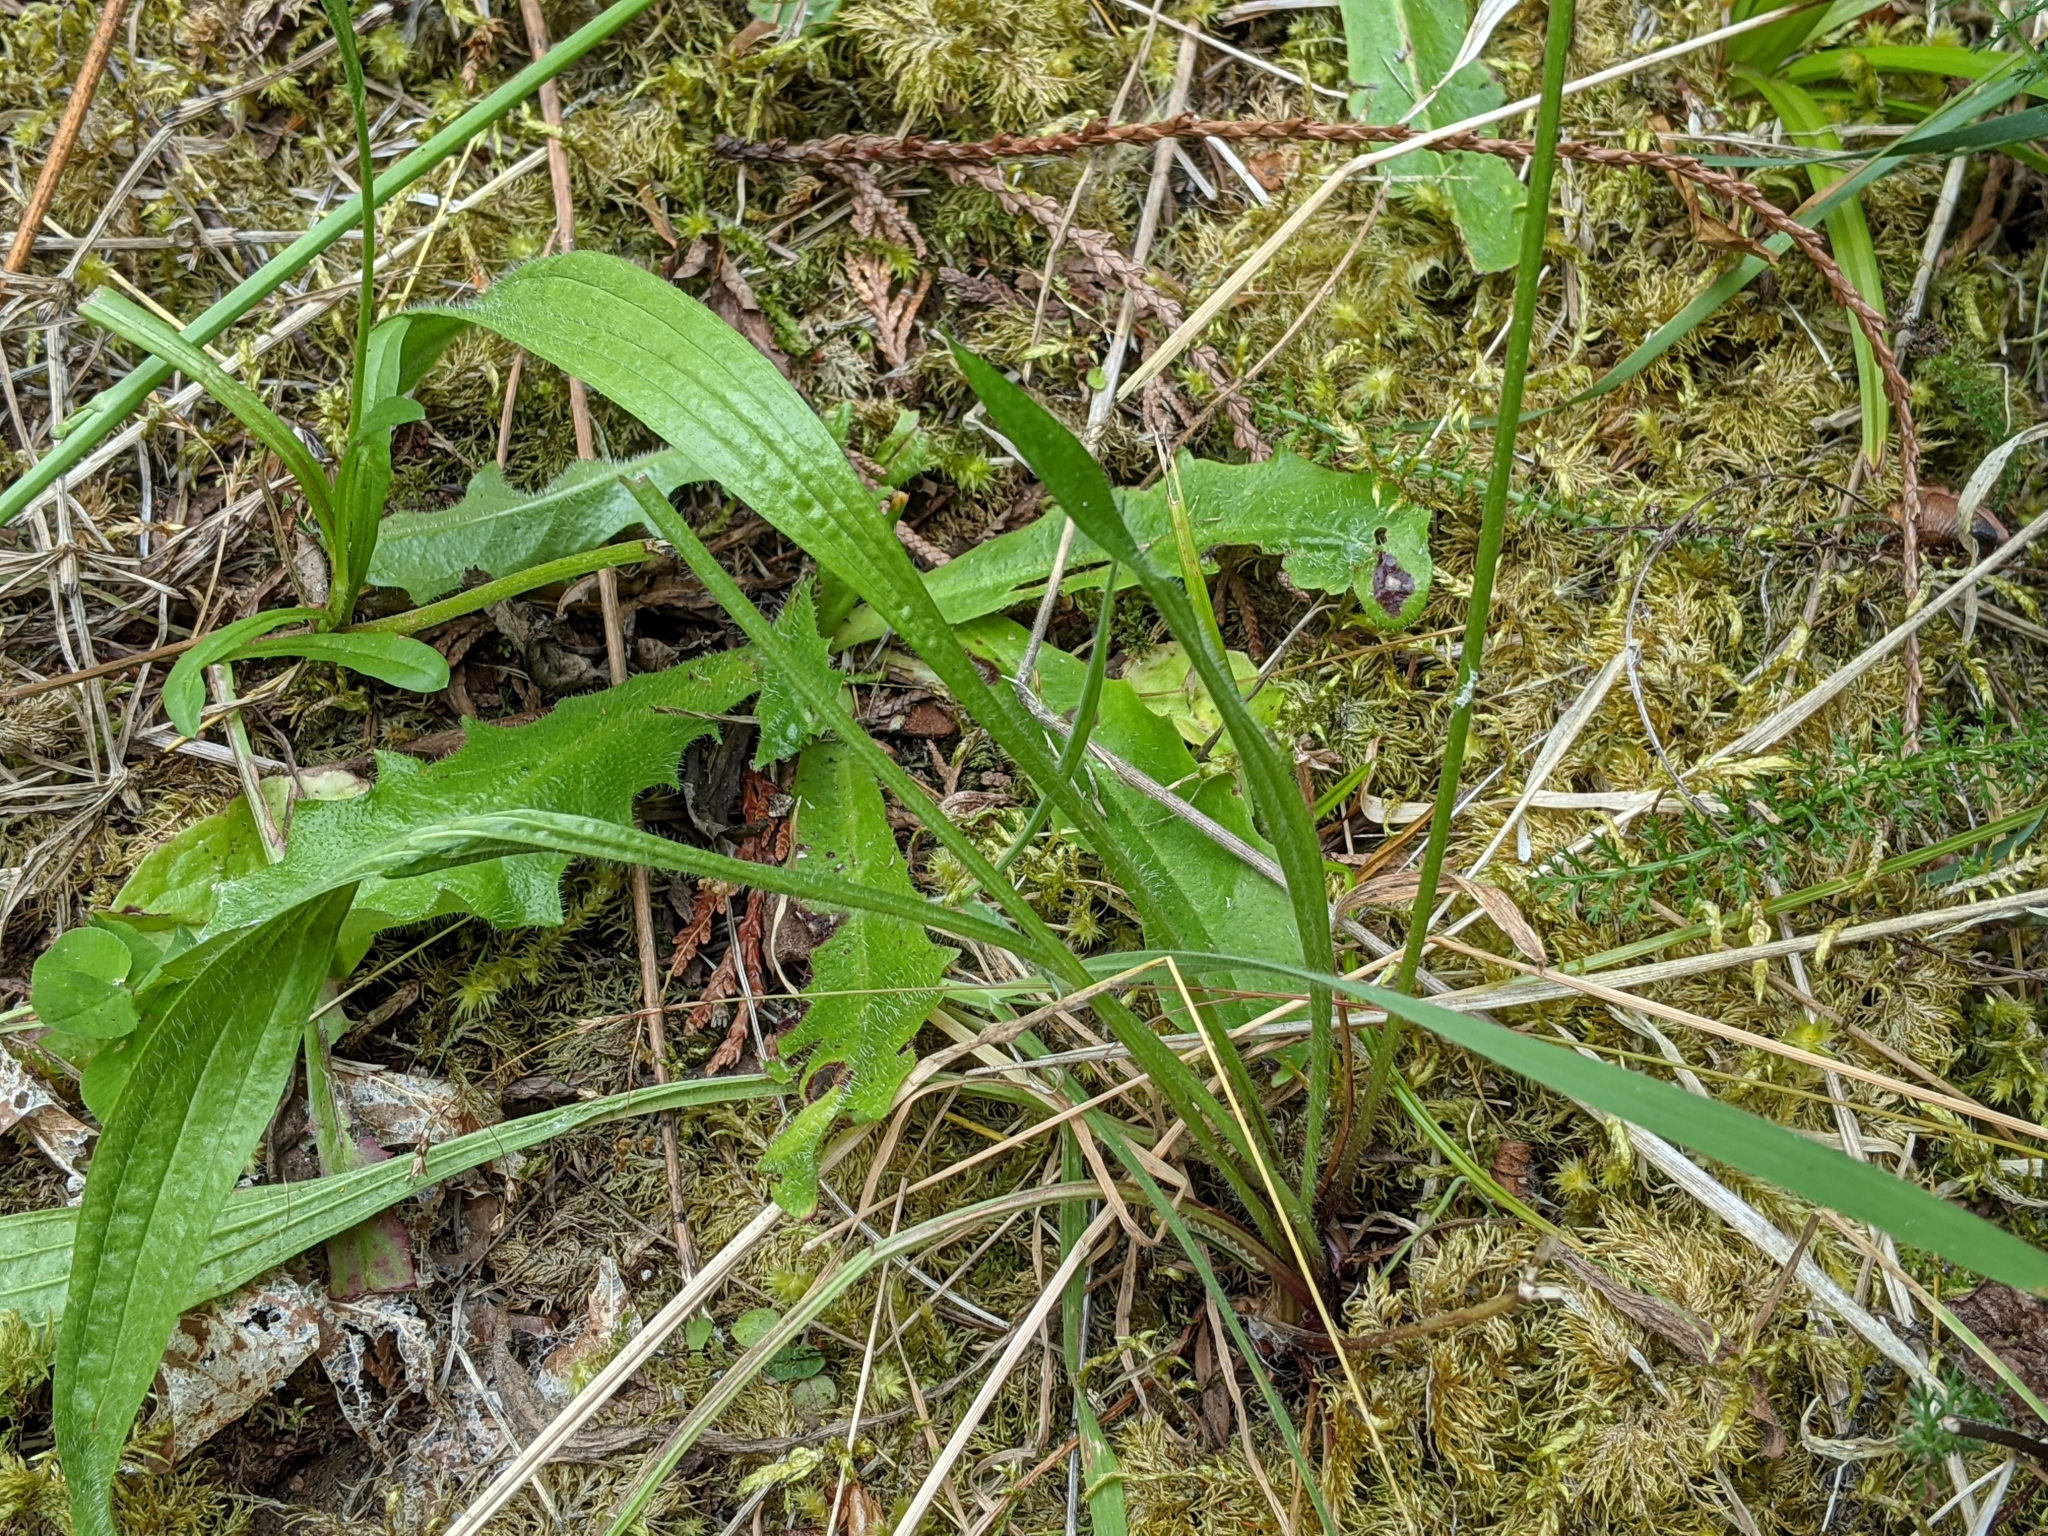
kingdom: Plantae
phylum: Tracheophyta
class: Magnoliopsida
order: Lamiales
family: Plantaginaceae
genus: Plantago
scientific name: Plantago lanceolata
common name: Ribwort plantain
